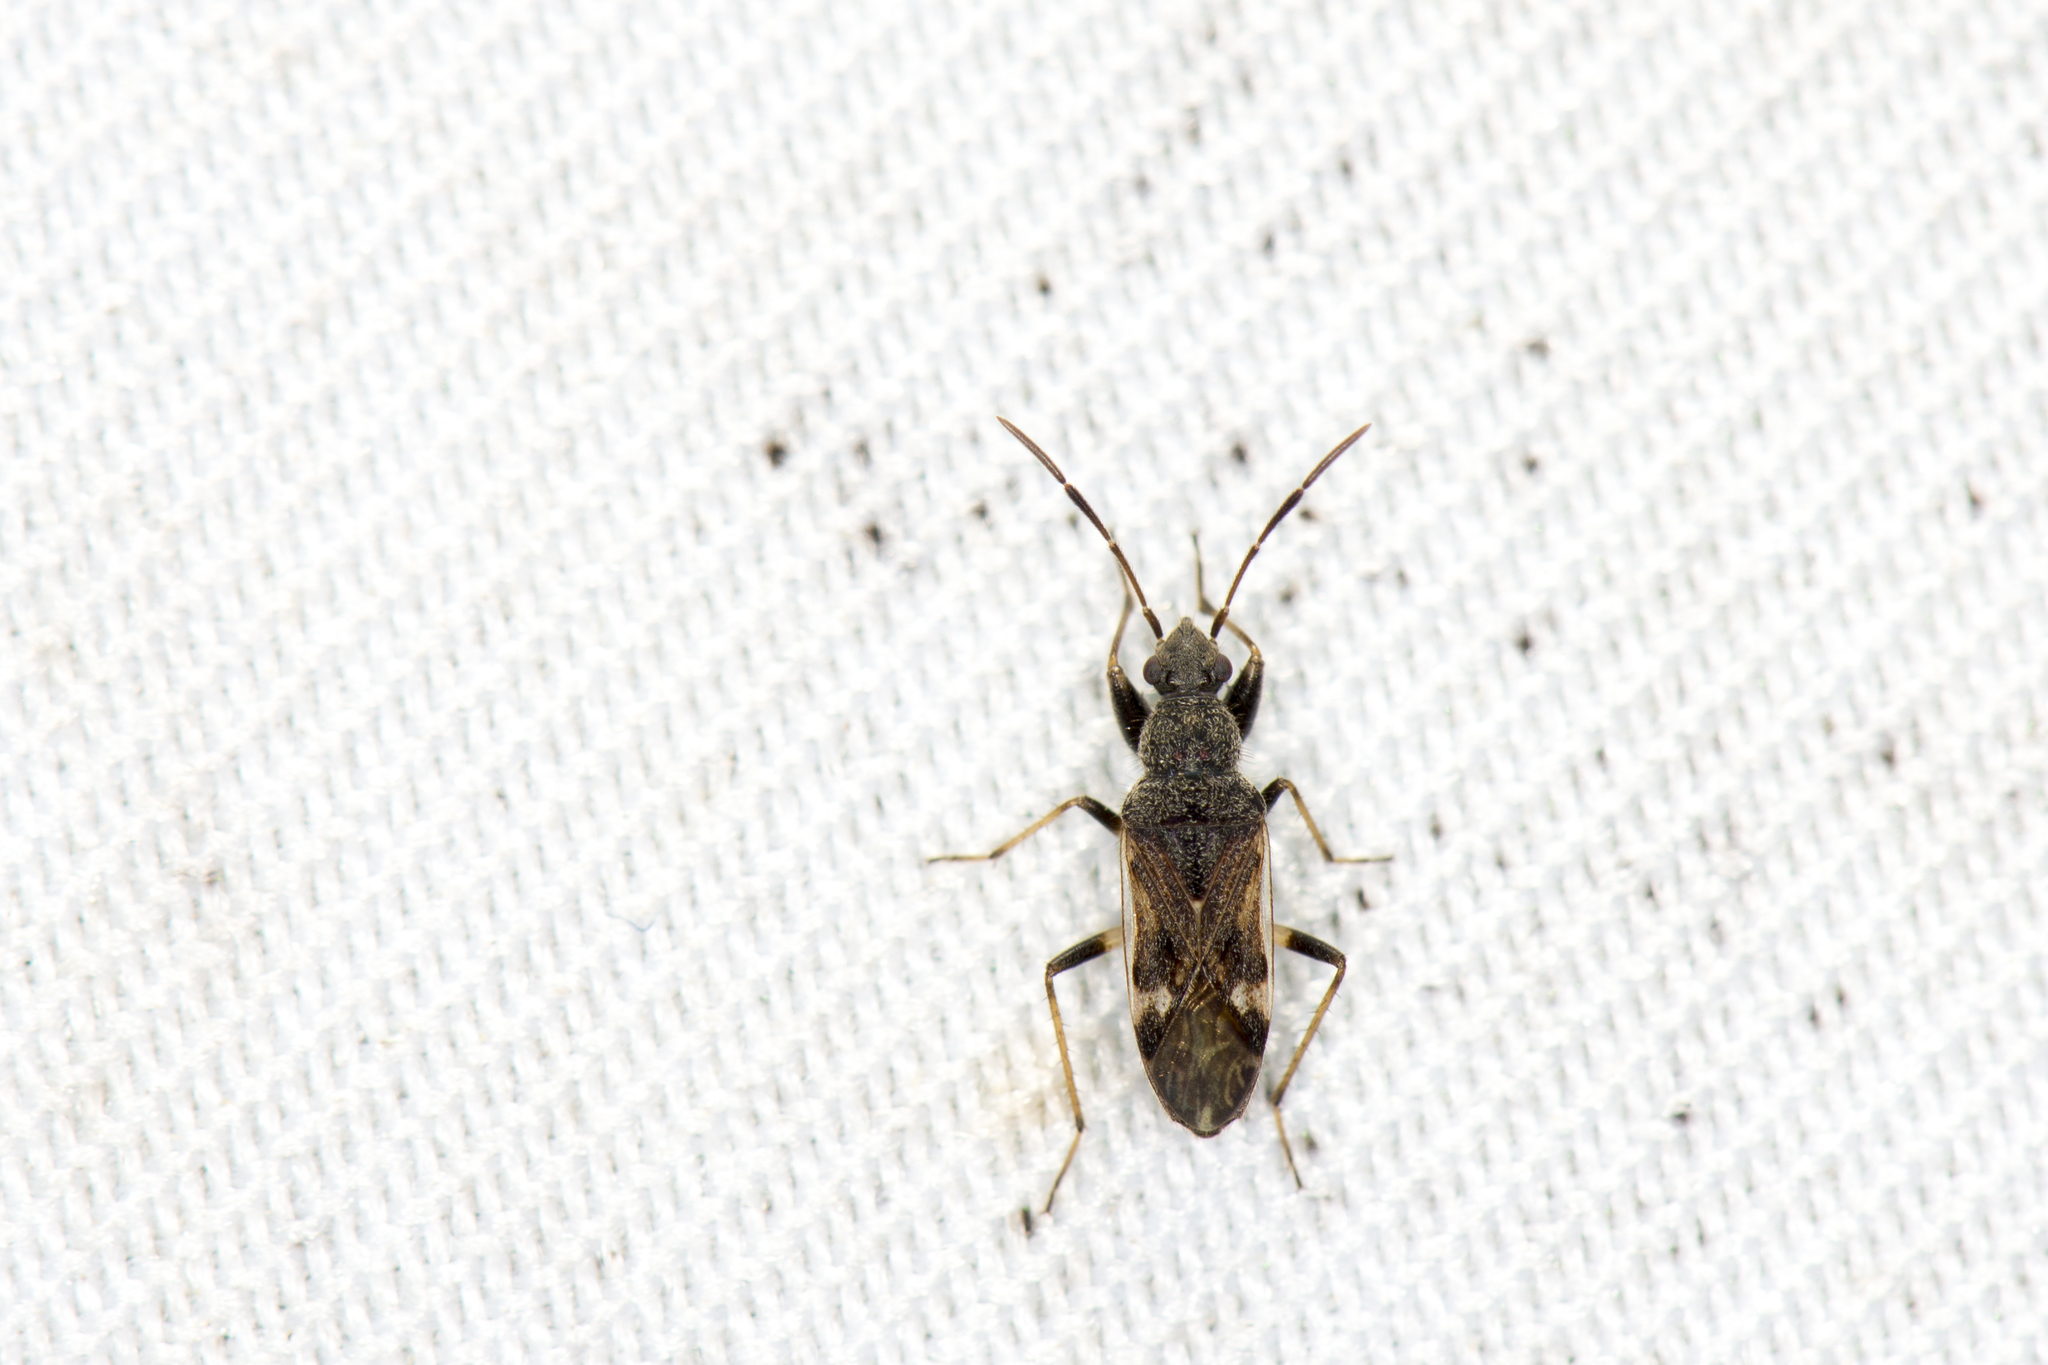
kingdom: Animalia
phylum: Arthropoda
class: Insecta
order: Hemiptera
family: Rhyparochromidae
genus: Horridipamera
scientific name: Horridipamera nietneri
